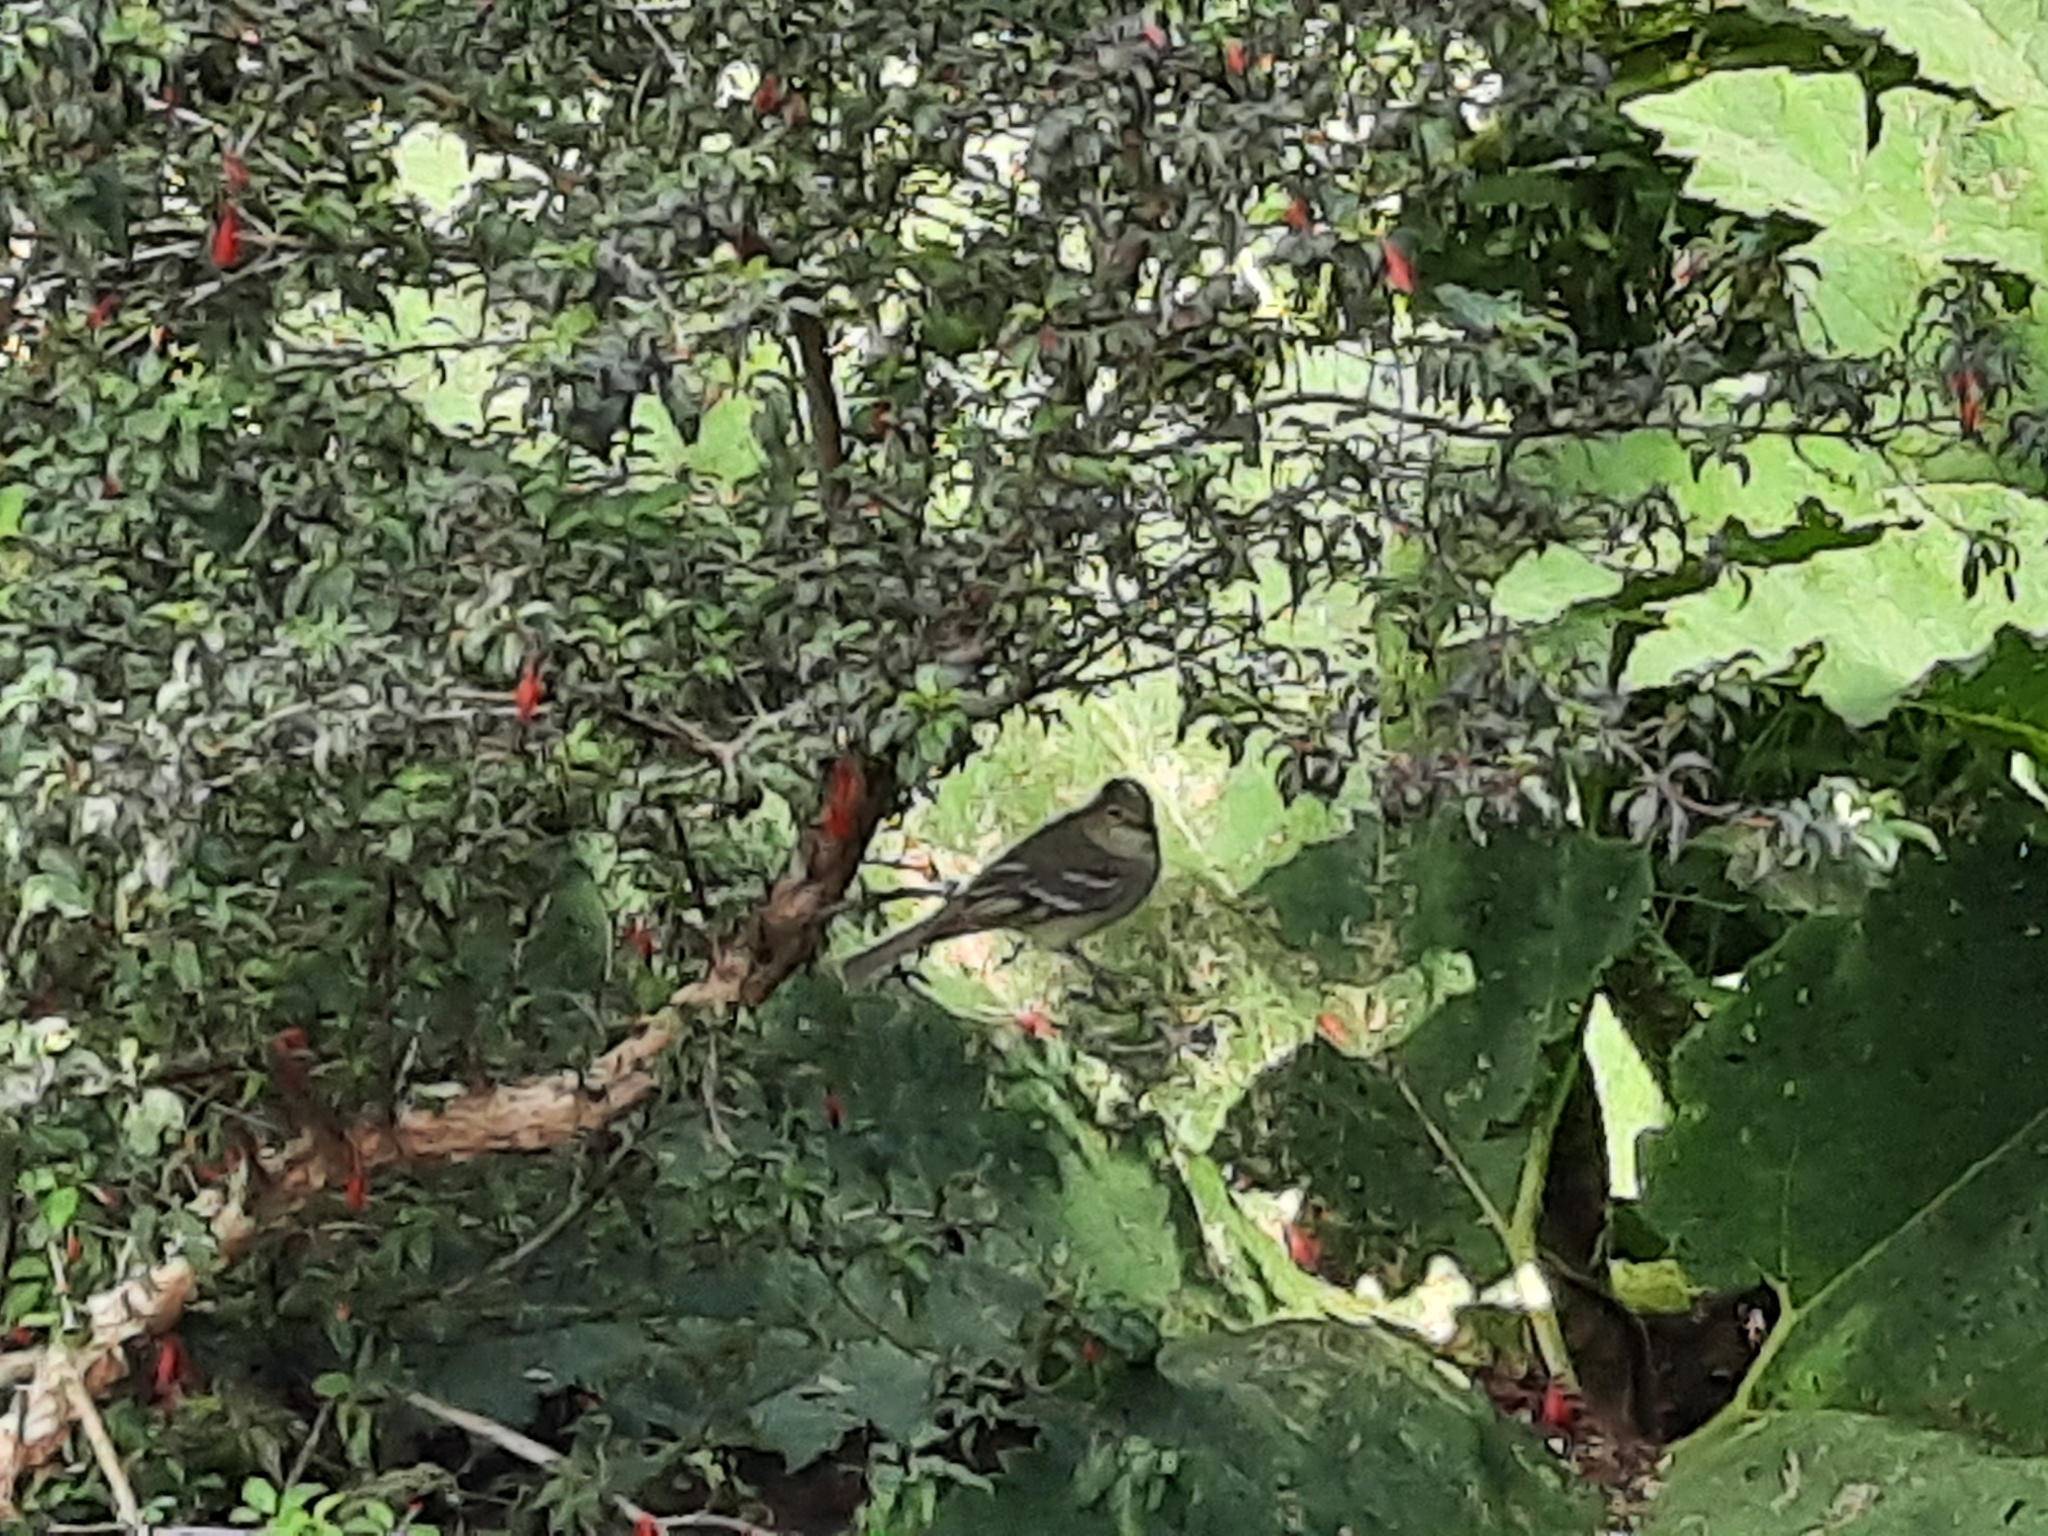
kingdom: Animalia
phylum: Chordata
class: Aves
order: Passeriformes
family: Tyrannidae
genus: Elaenia
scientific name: Elaenia albiceps
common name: White-crested elaenia
